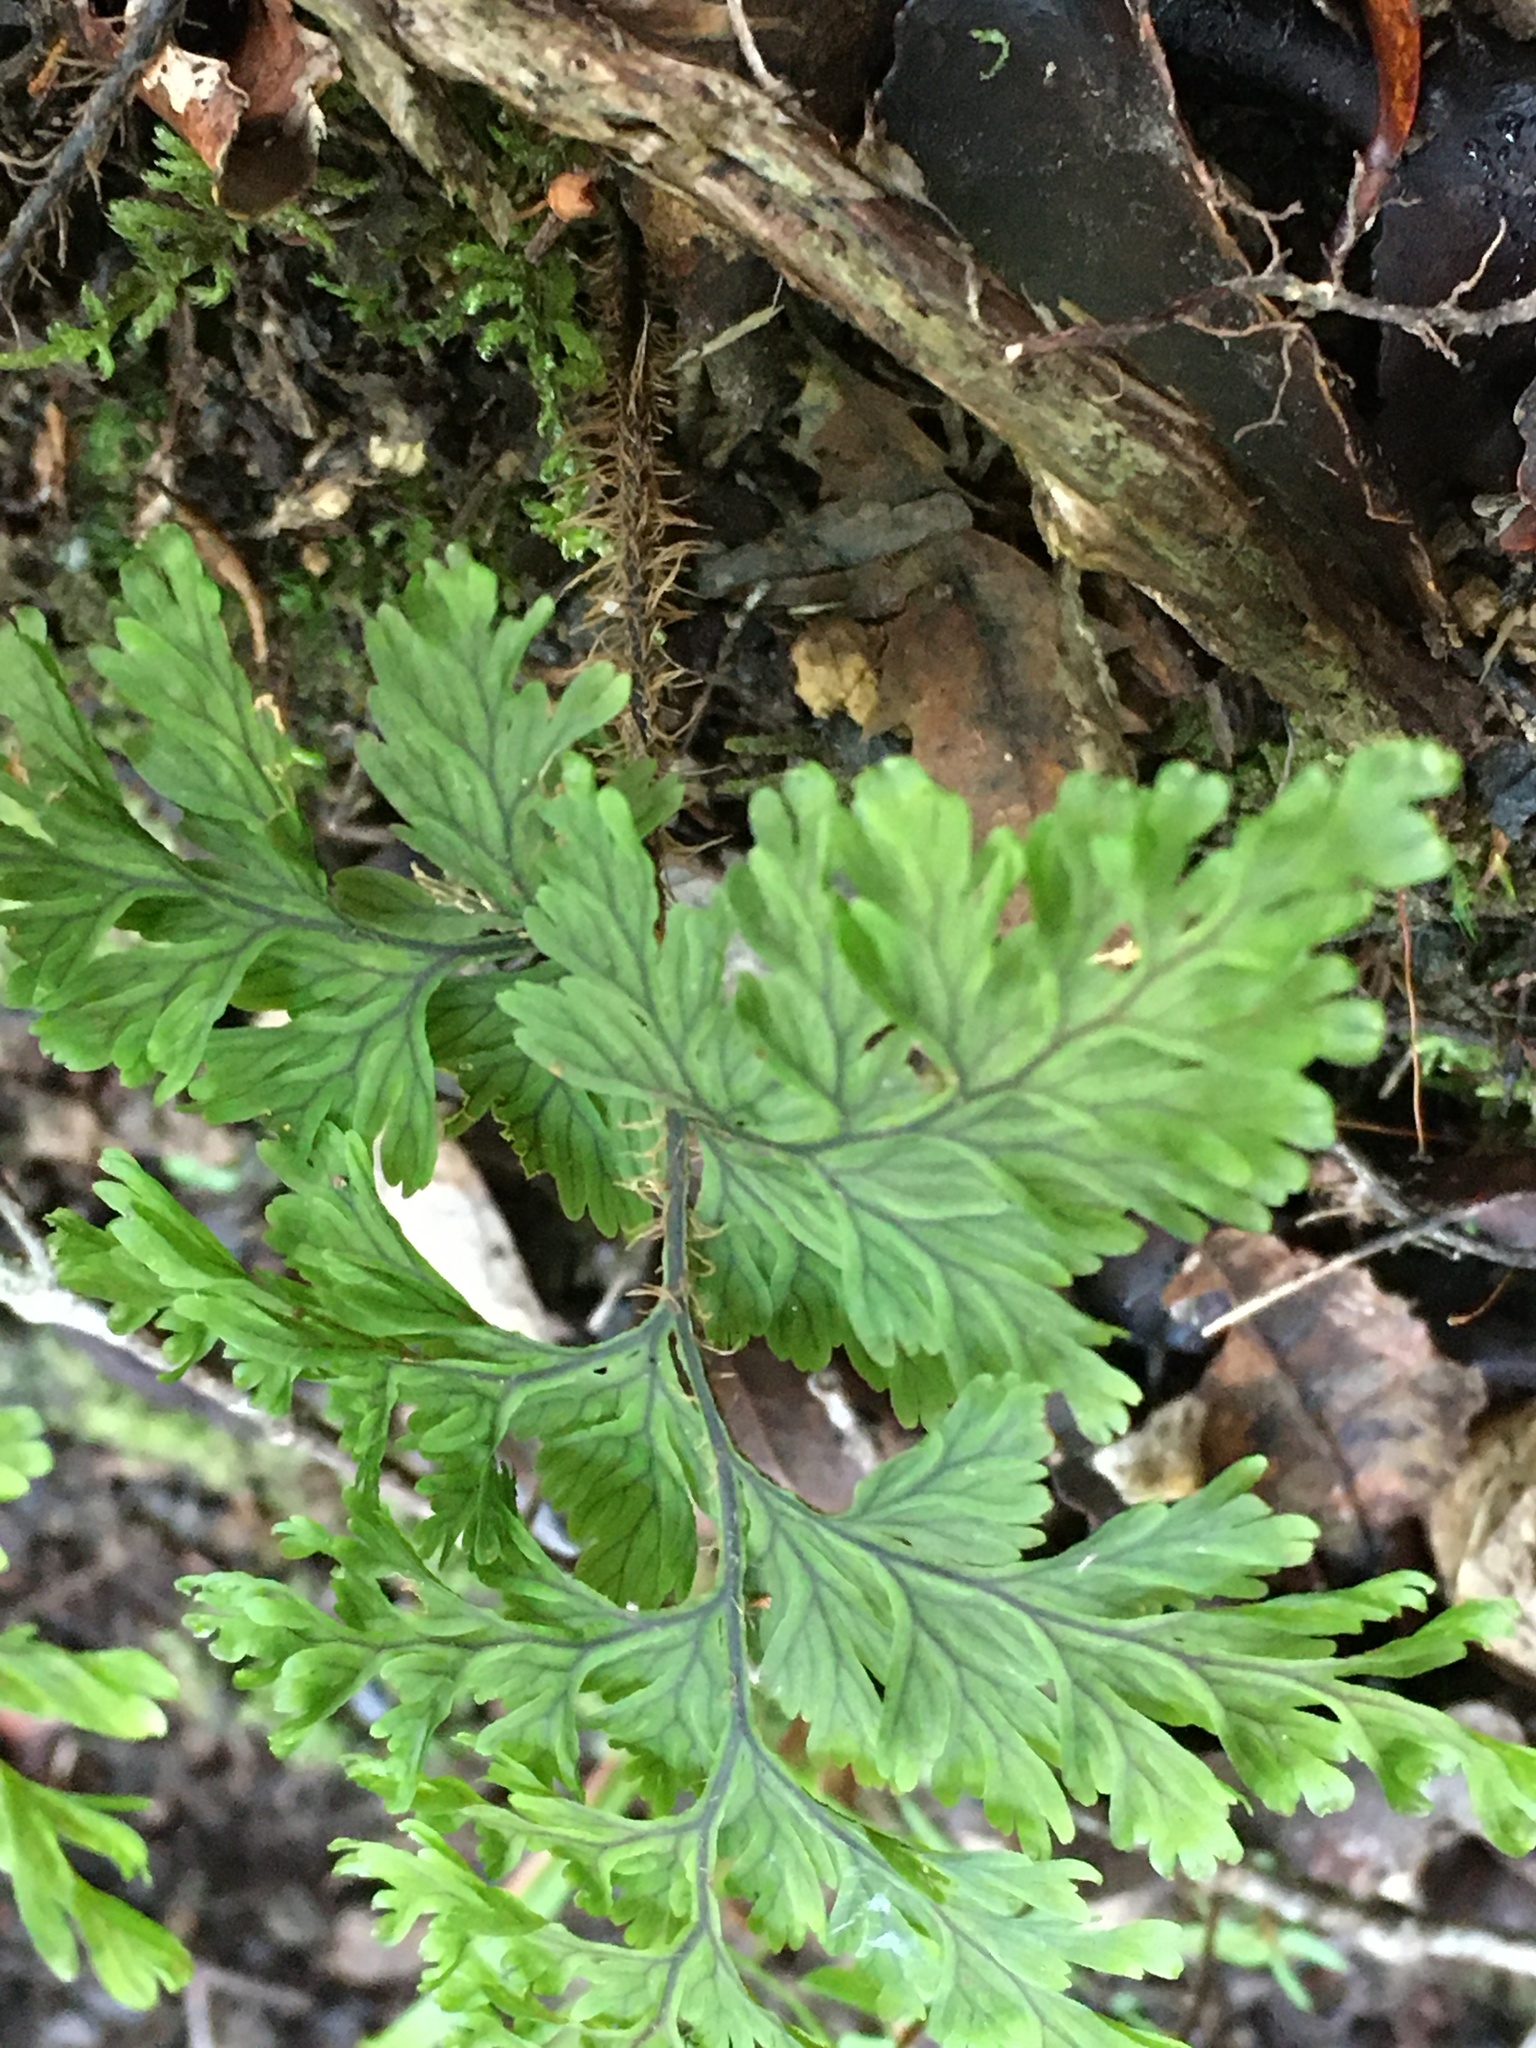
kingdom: Plantae
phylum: Tracheophyta
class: Polypodiopsida
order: Hymenophyllales
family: Hymenophyllaceae
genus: Hymenophyllum
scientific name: Hymenophyllum scabrum
